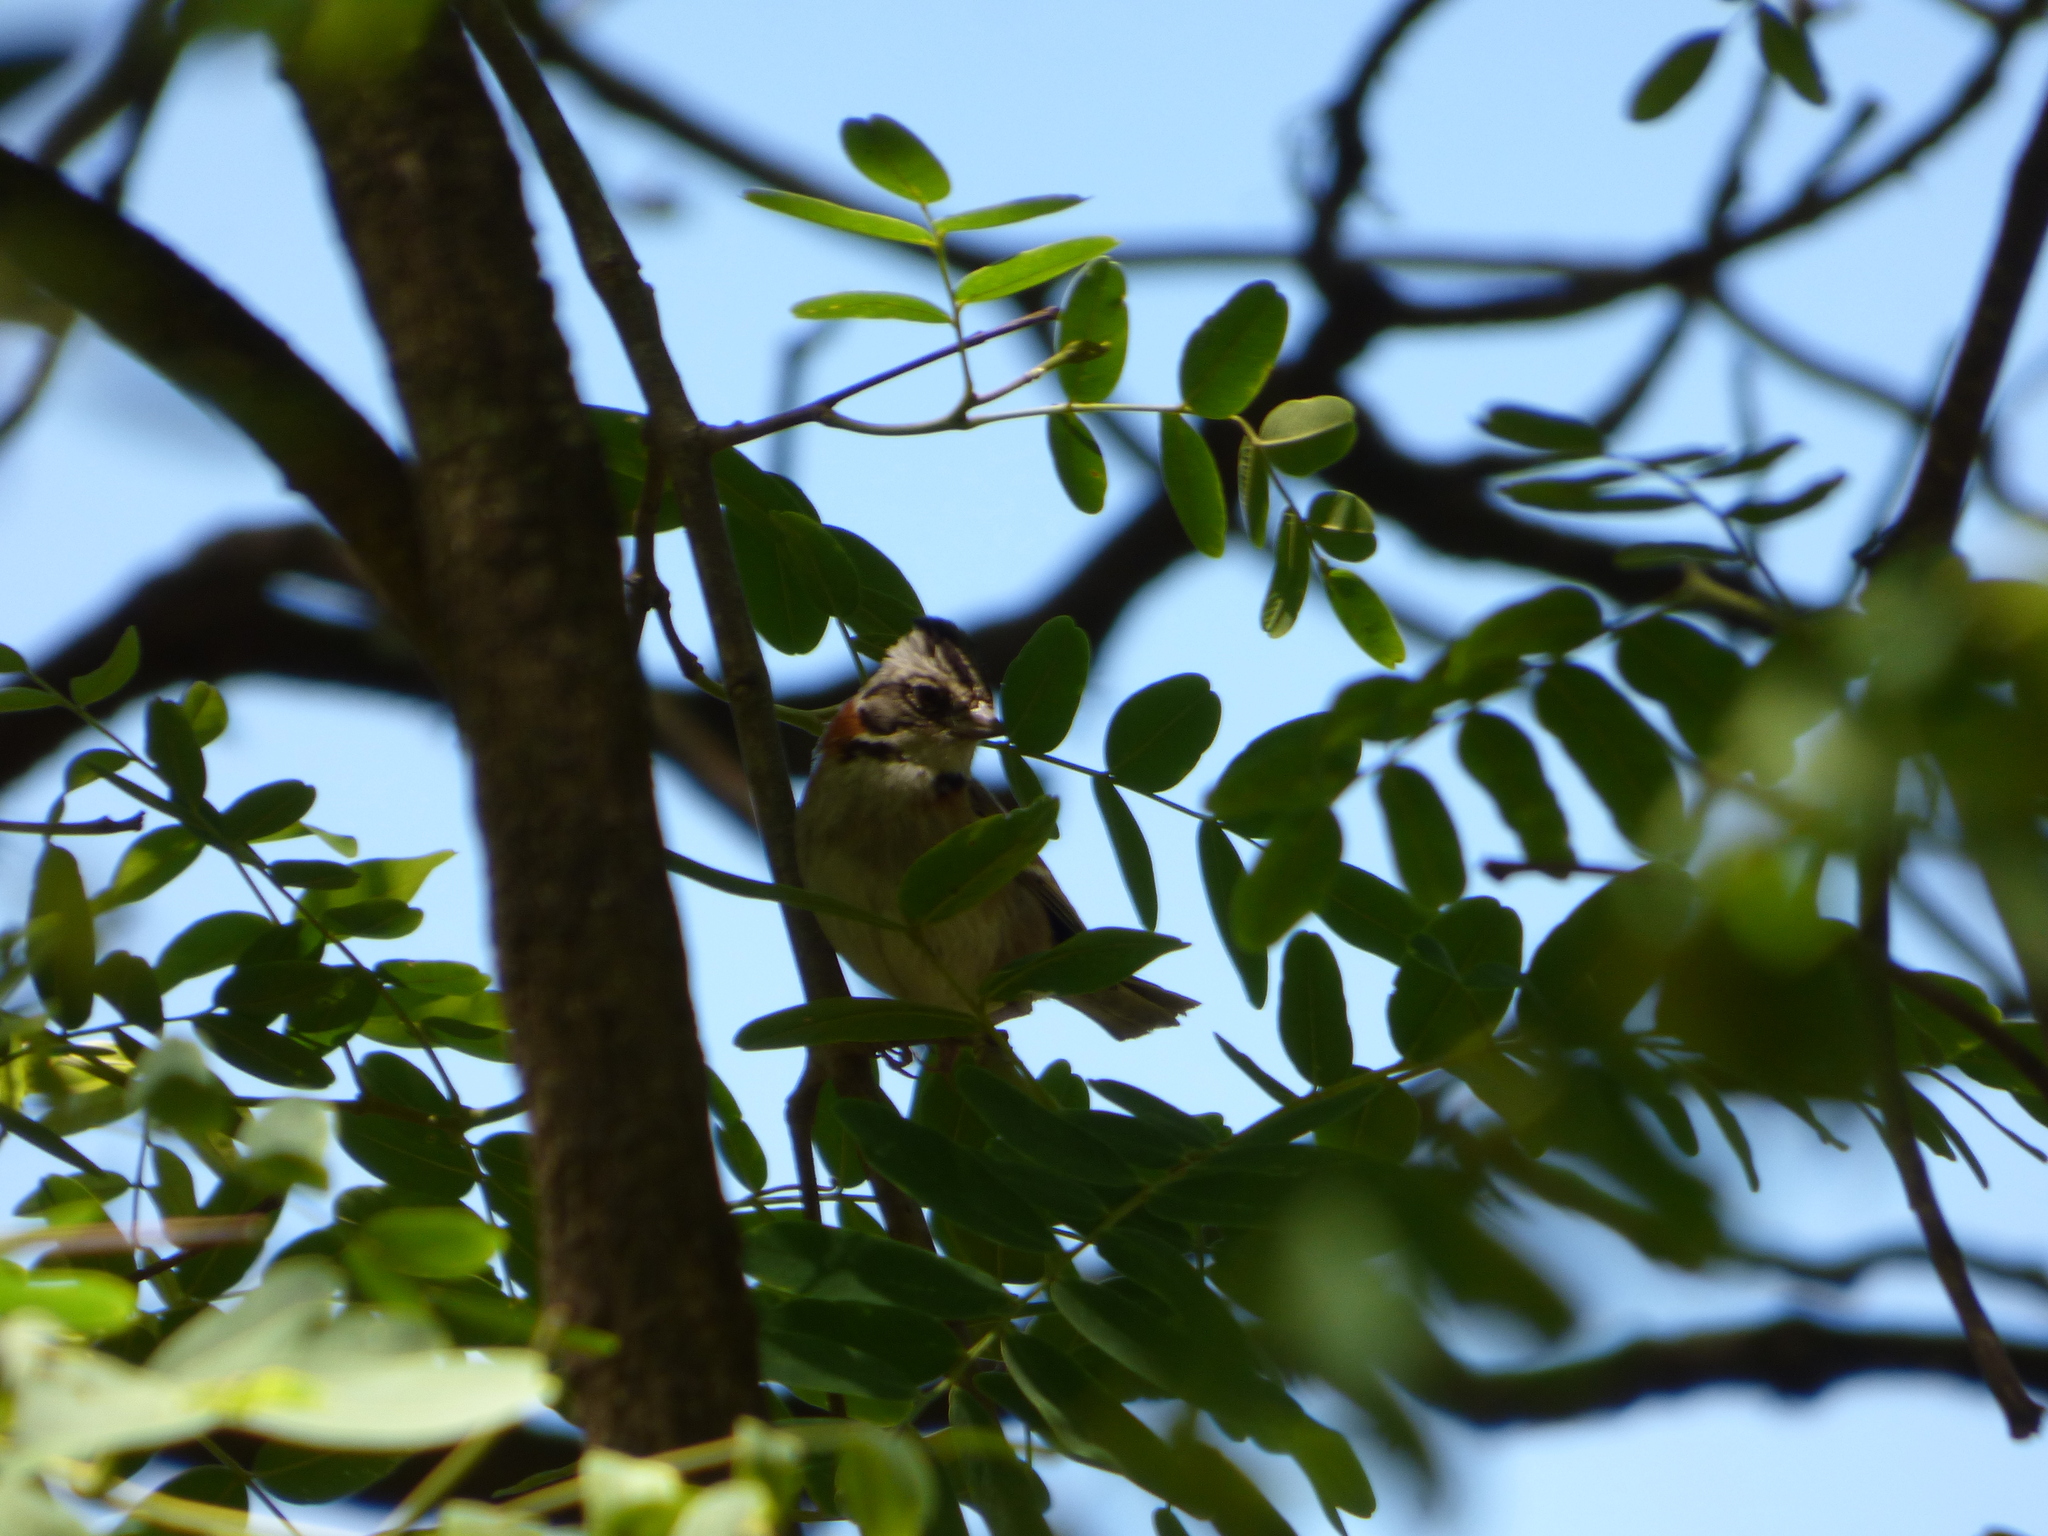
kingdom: Animalia
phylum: Chordata
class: Aves
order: Passeriformes
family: Passerellidae
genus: Zonotrichia
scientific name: Zonotrichia capensis
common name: Rufous-collared sparrow
